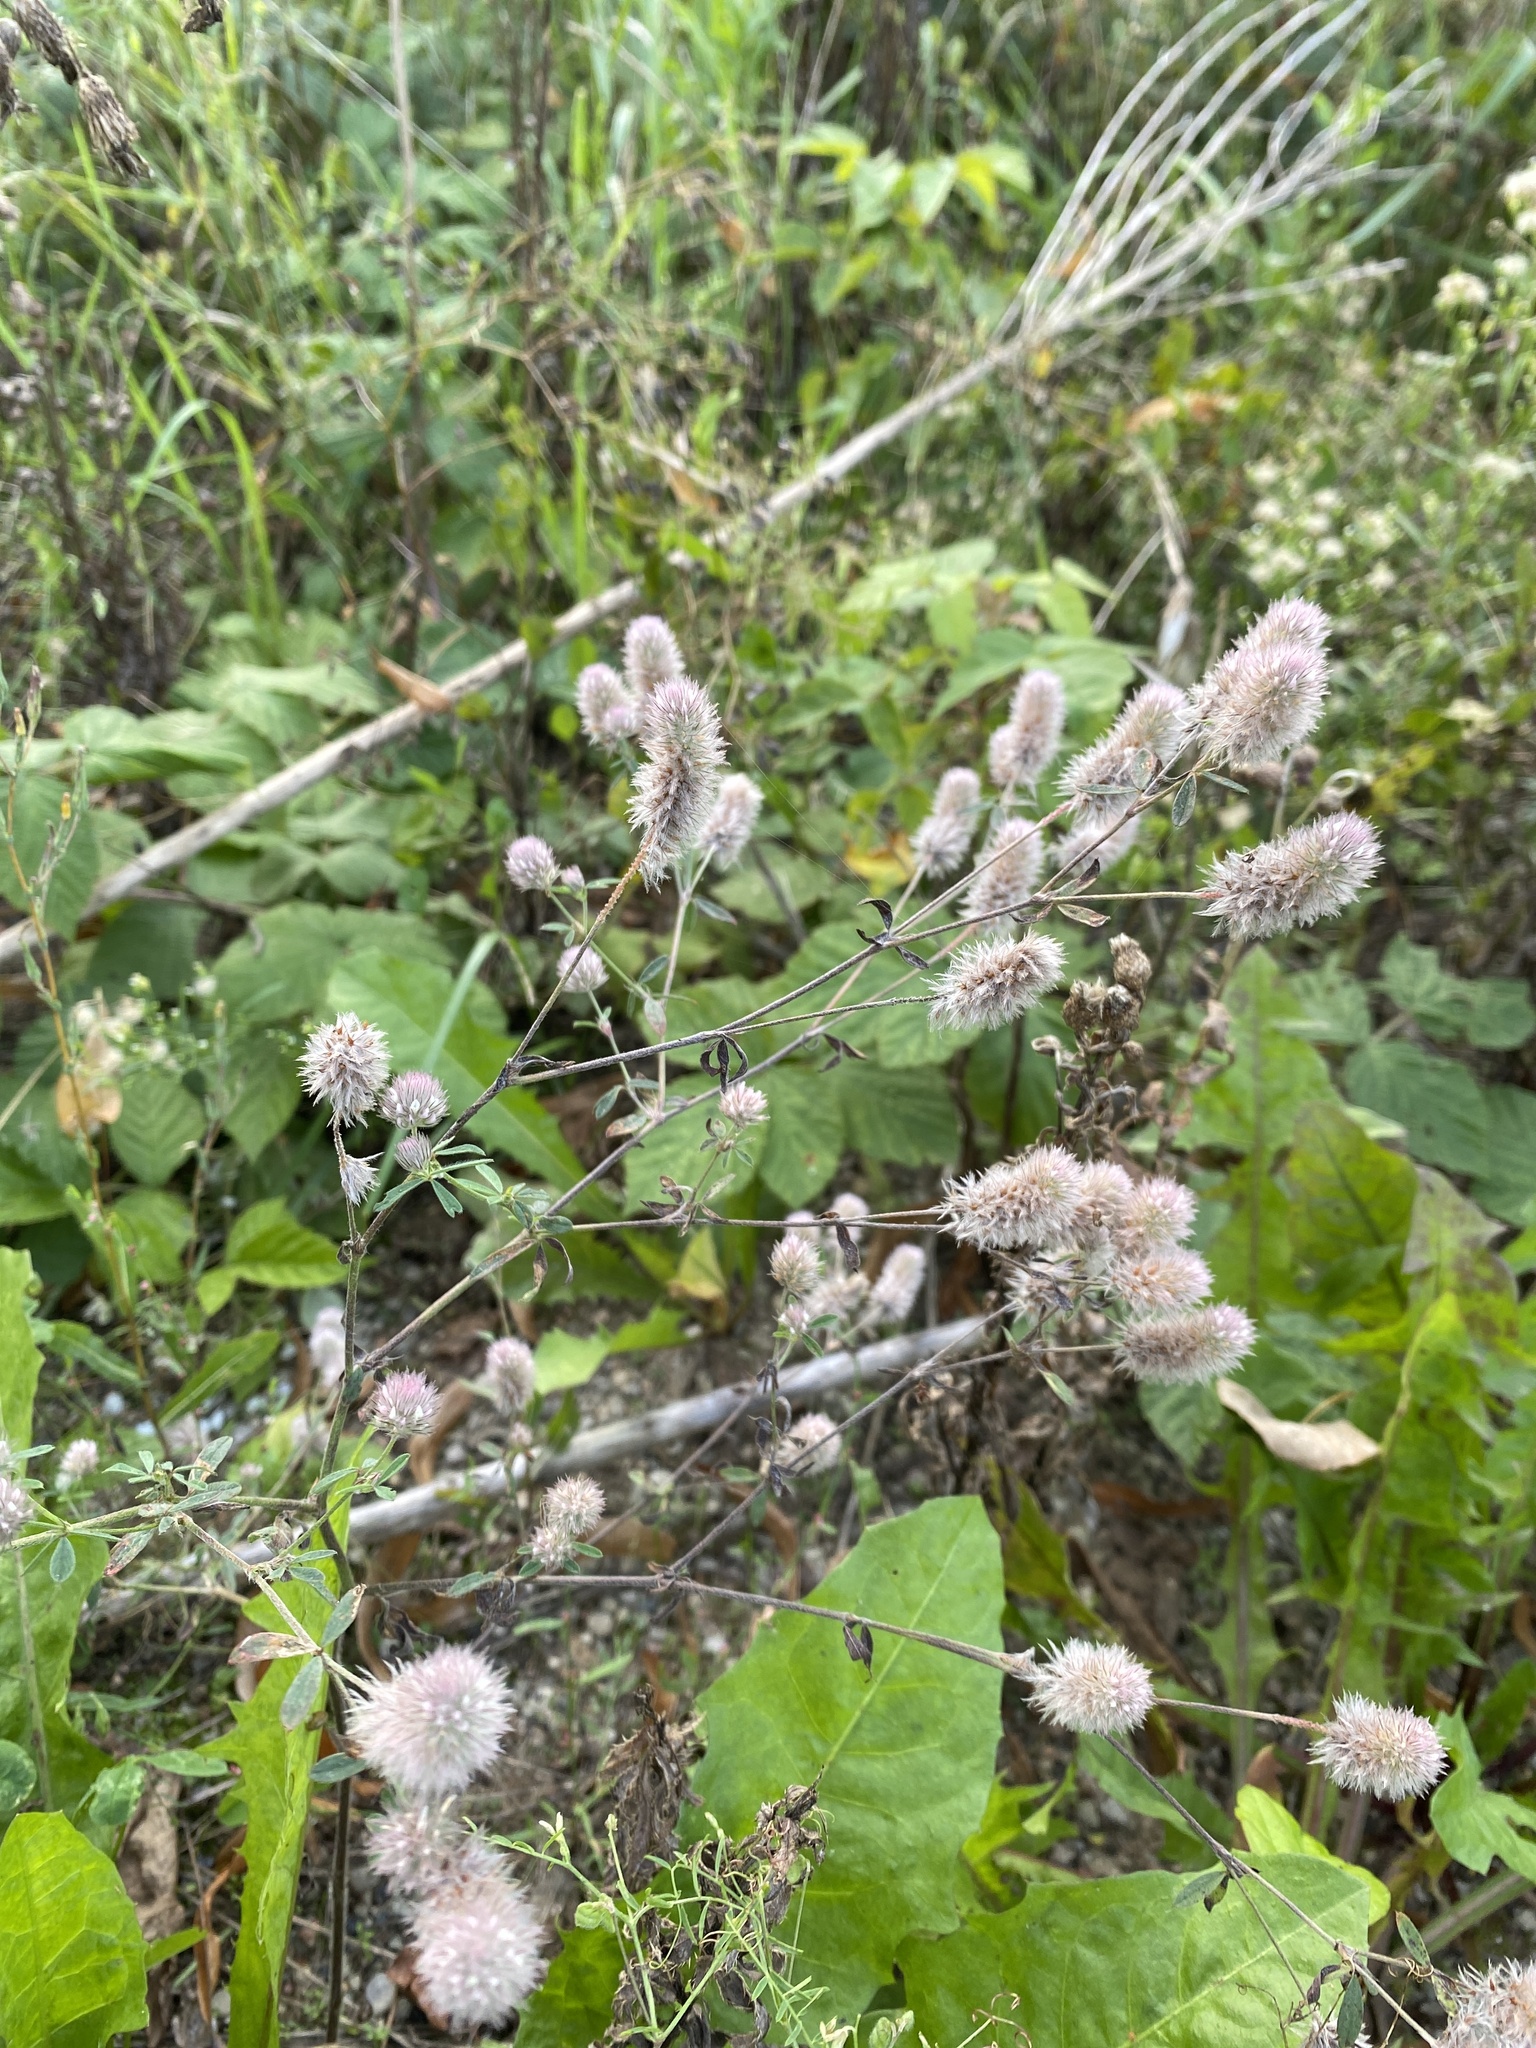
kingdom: Plantae
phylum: Tracheophyta
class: Magnoliopsida
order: Fabales
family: Fabaceae
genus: Trifolium
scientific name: Trifolium arvense
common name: Hare's-foot clover
